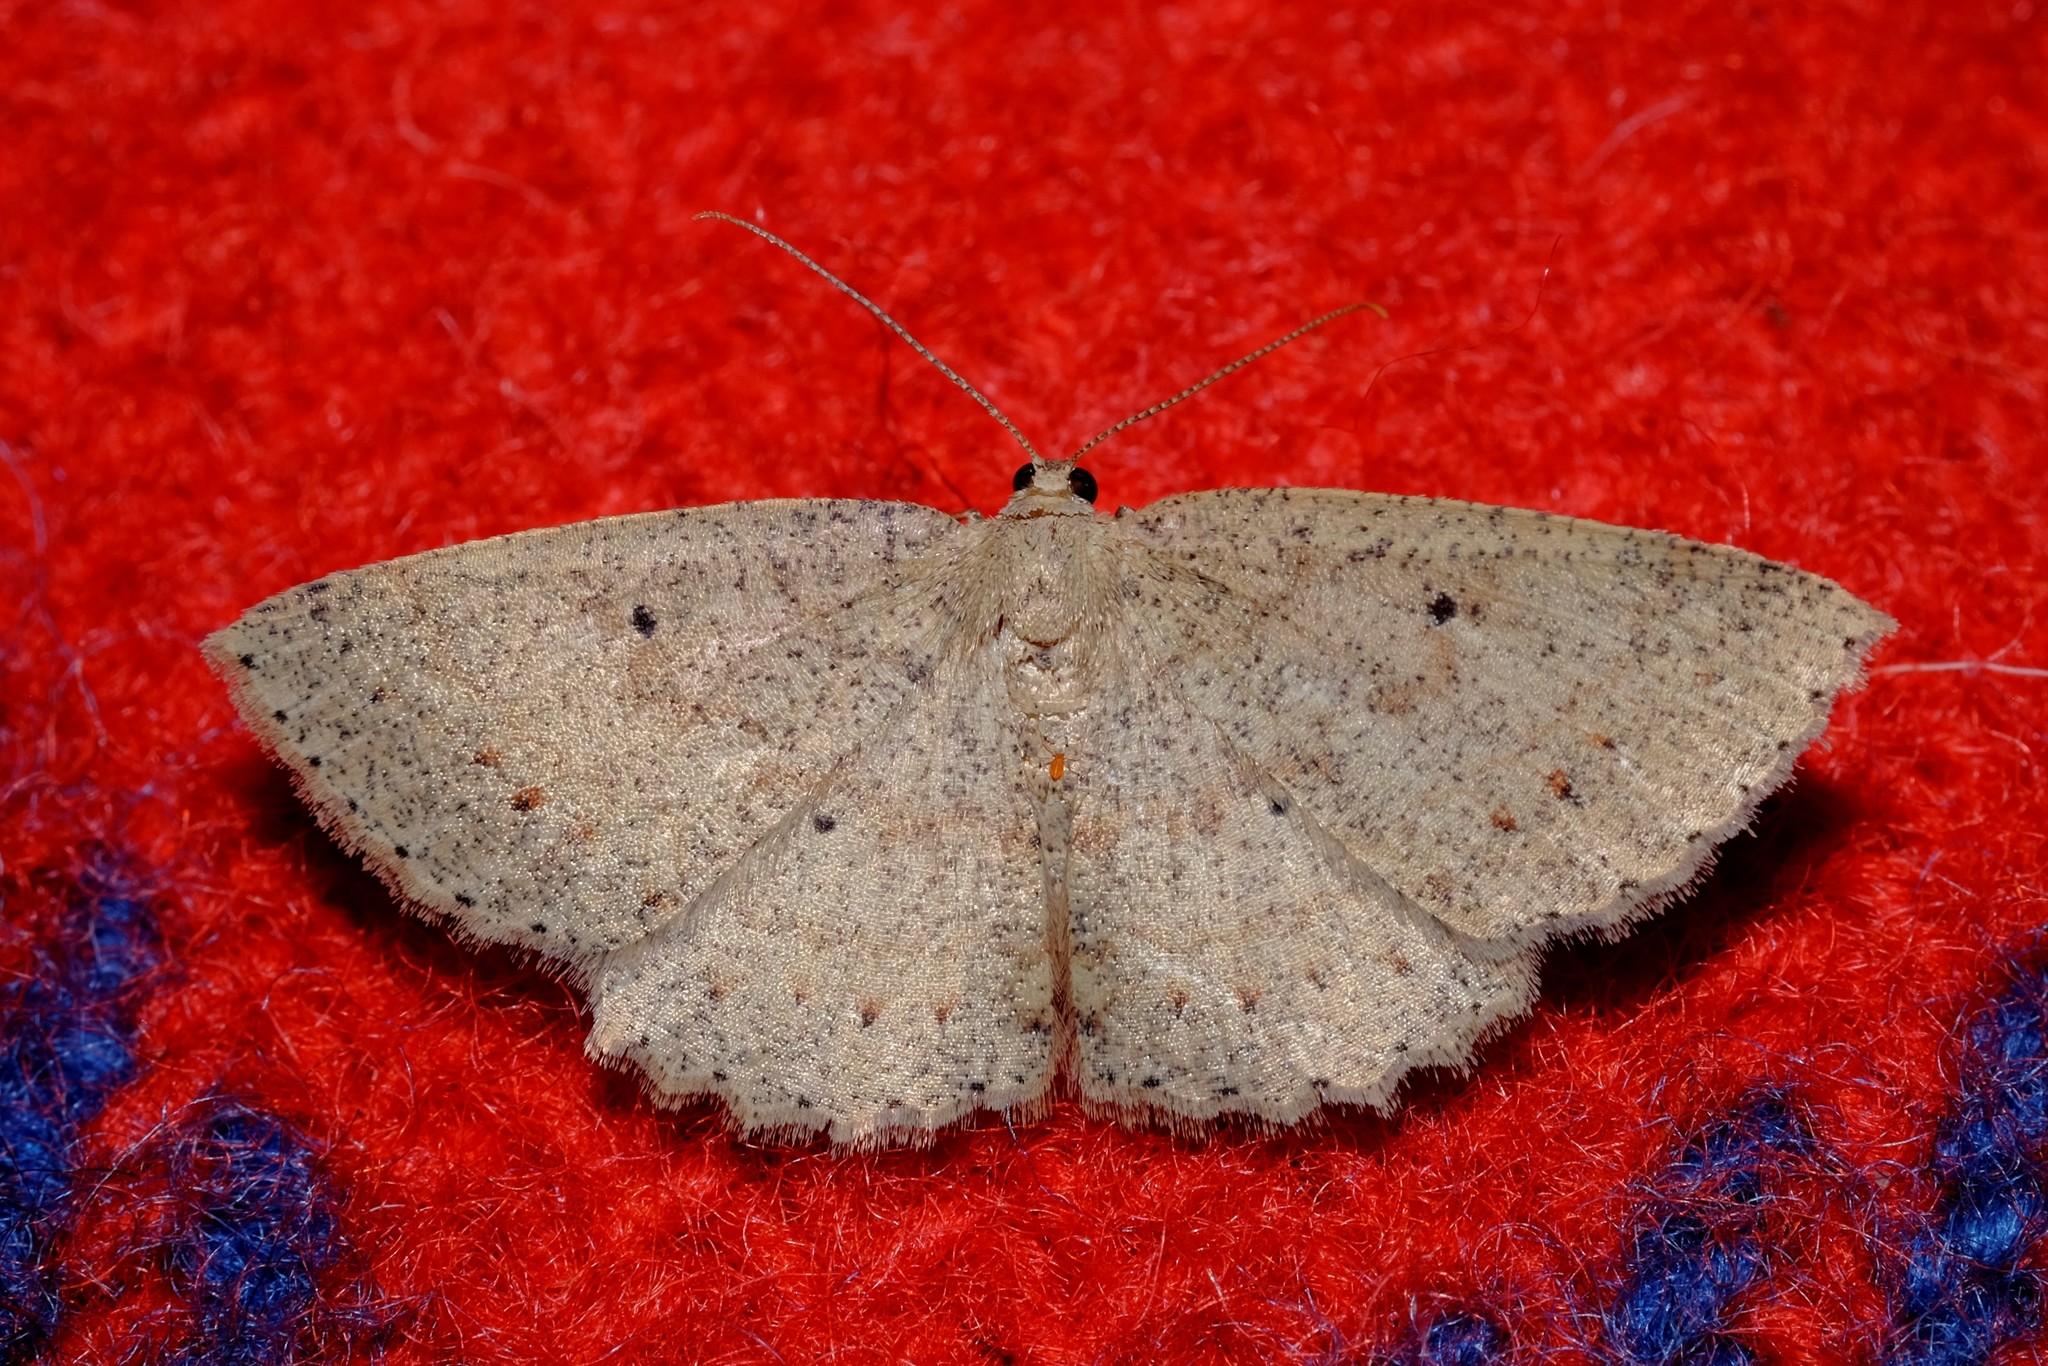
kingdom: Animalia
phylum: Arthropoda
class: Insecta
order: Lepidoptera
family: Geometridae
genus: Casbia
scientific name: Casbia tanaoctena
